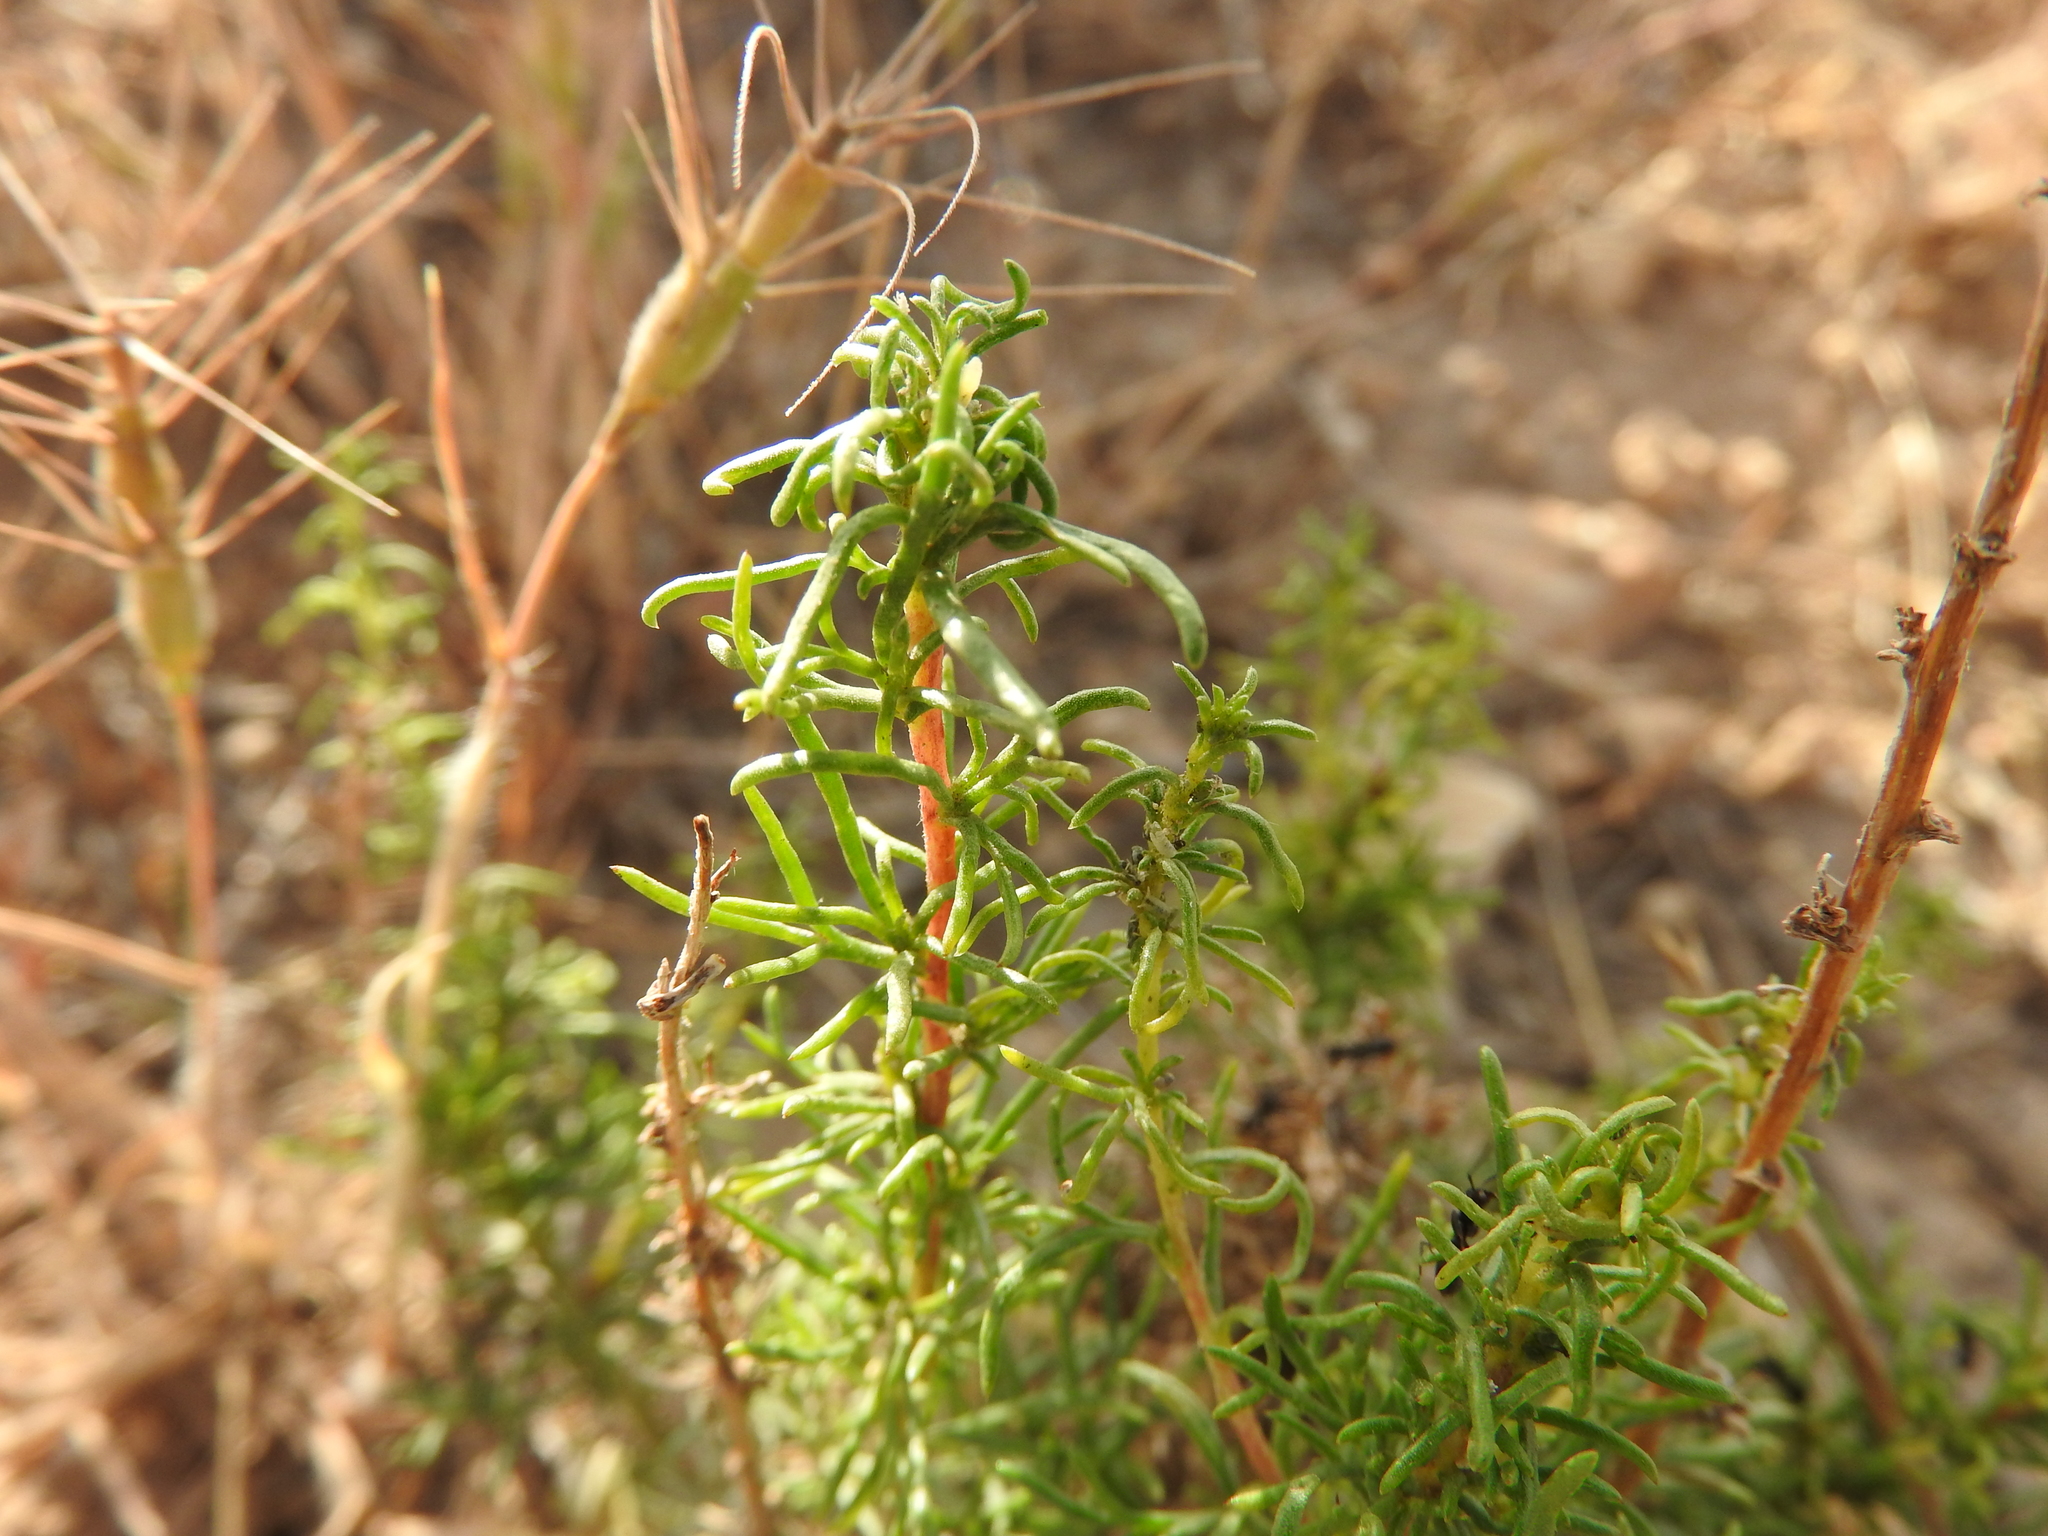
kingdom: Plantae
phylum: Tracheophyta
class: Magnoliopsida
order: Asterales
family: Asteraceae
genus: Artemisia
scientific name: Artemisia campestris
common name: Field wormwood
